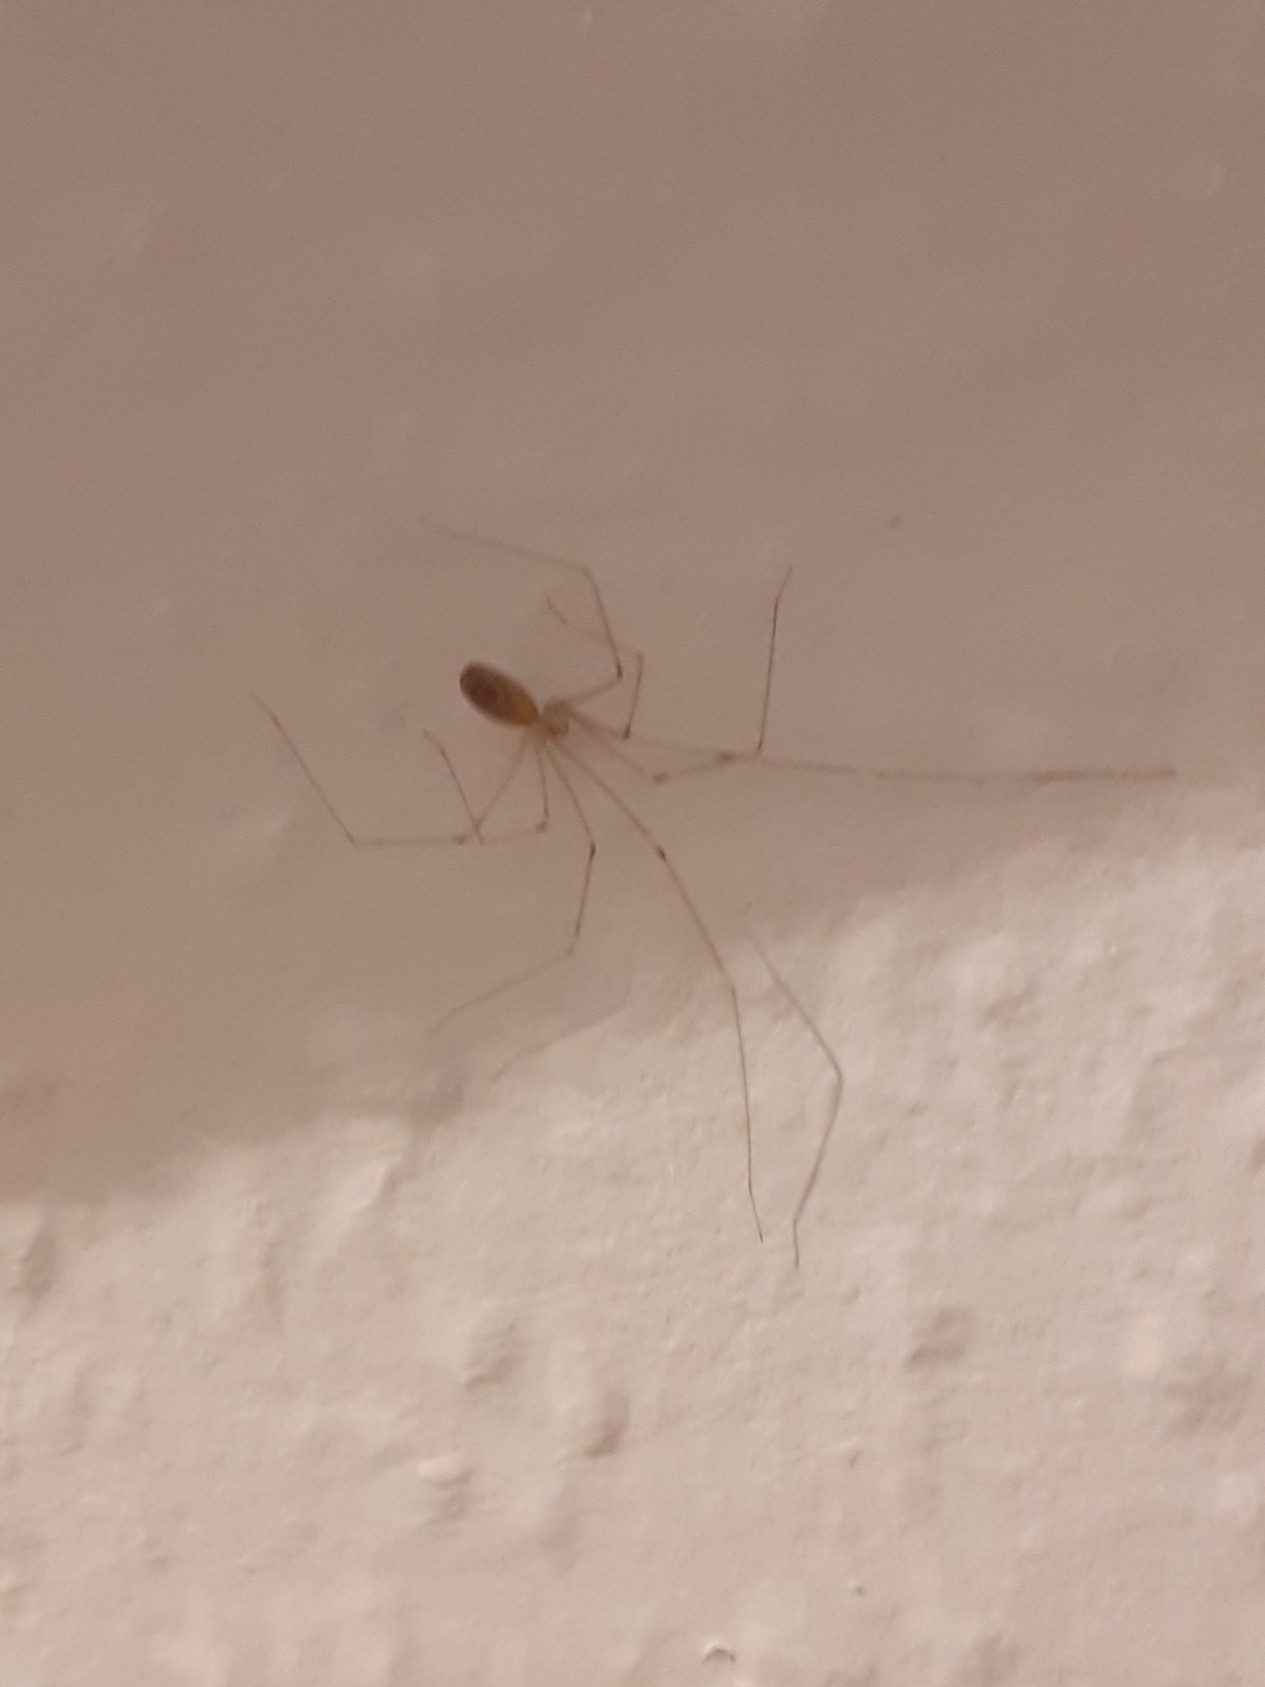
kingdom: Animalia
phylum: Arthropoda
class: Arachnida
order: Araneae
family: Pholcidae
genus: Pholcus
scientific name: Pholcus phalangioides
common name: Longbodied cellar spider
